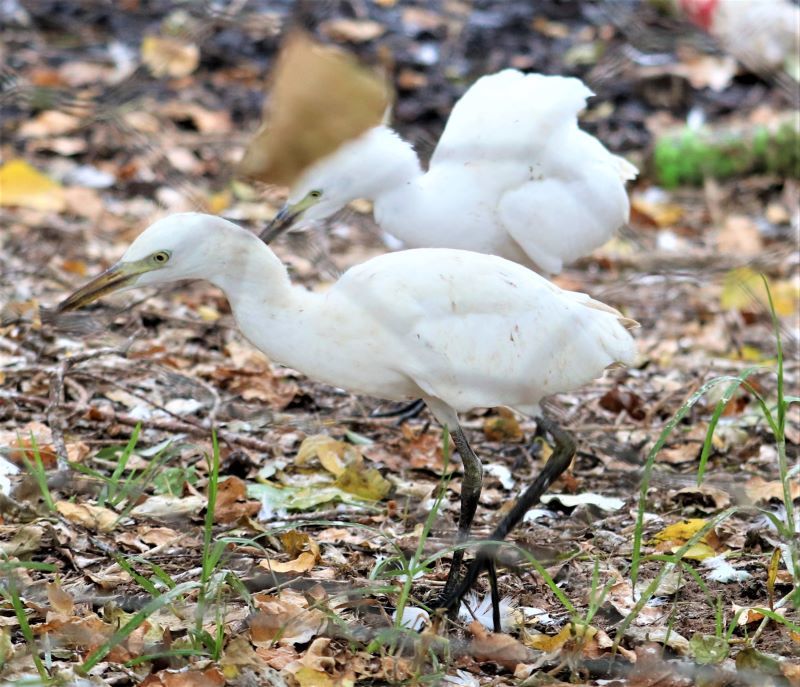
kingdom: Animalia
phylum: Chordata
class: Aves
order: Pelecaniformes
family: Ardeidae
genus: Bubulcus
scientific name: Bubulcus ibis
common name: Cattle egret
